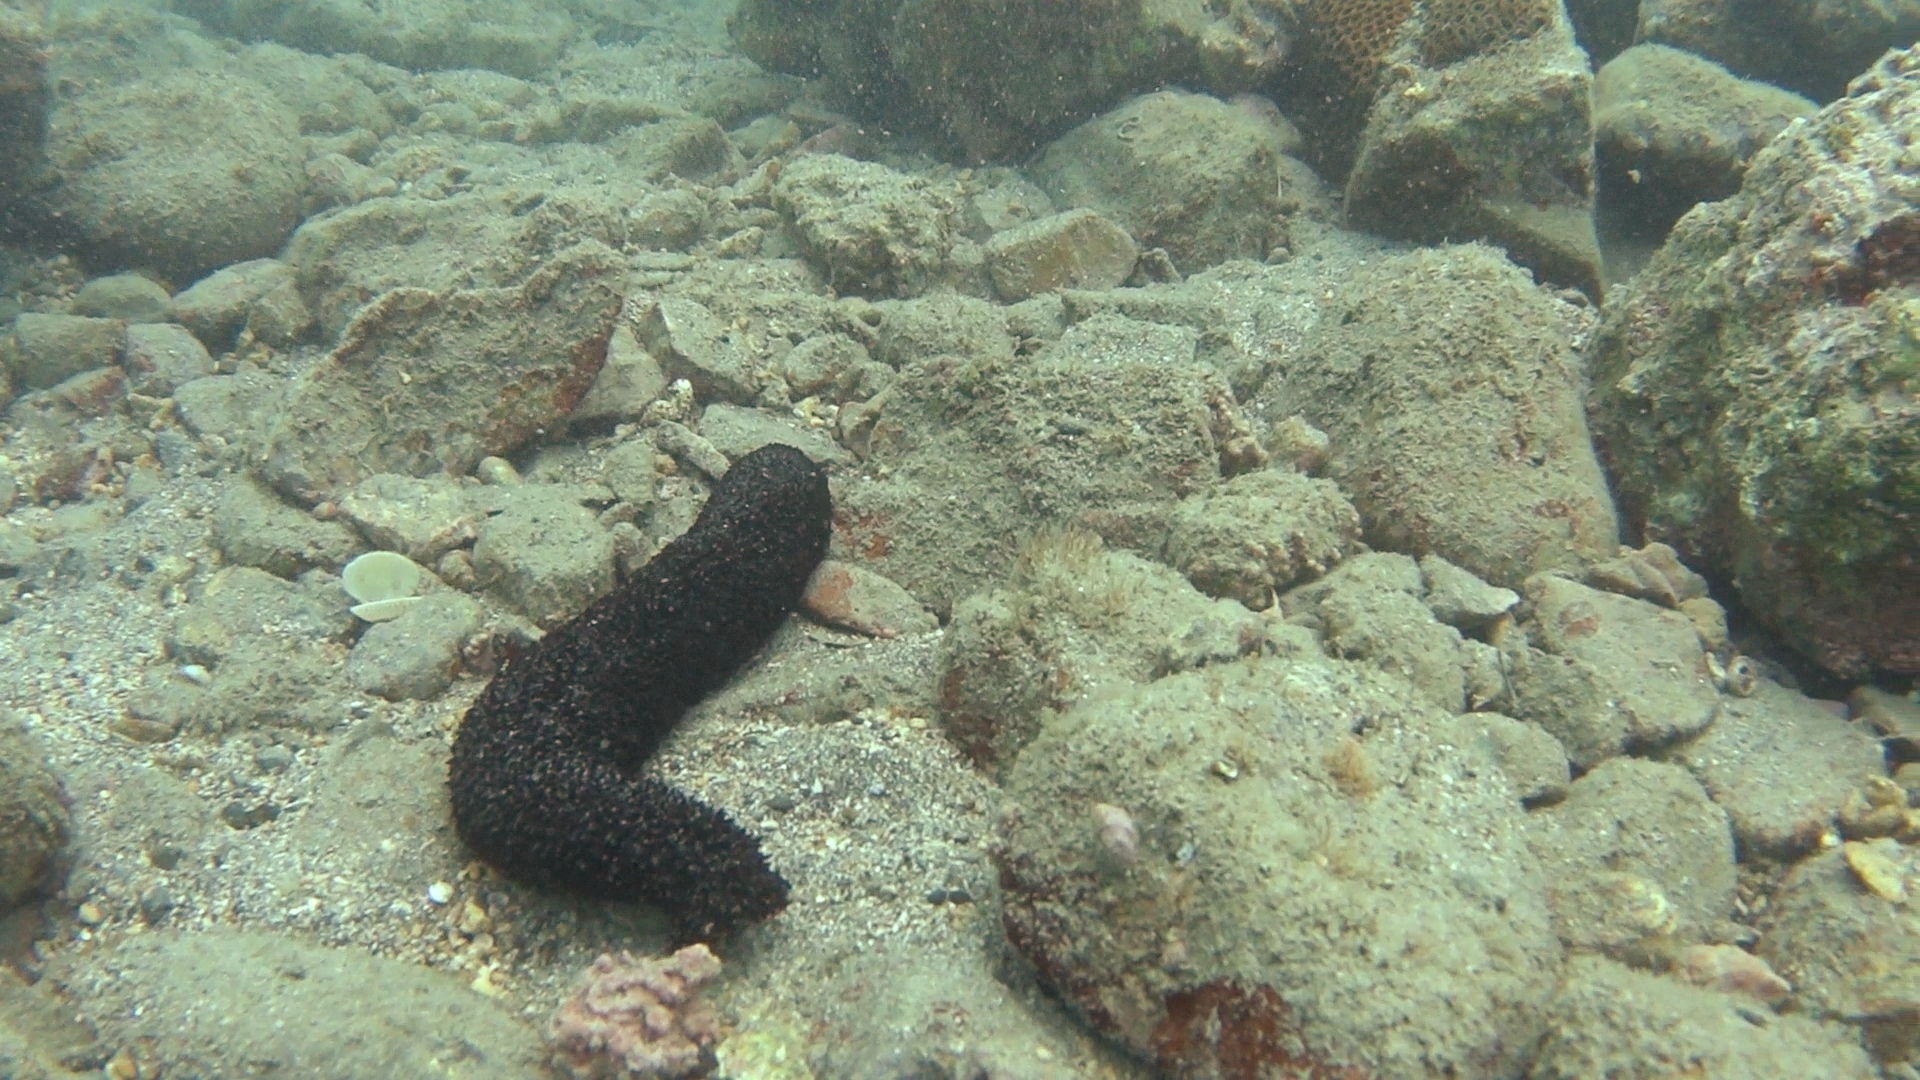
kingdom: Animalia
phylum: Echinodermata
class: Holothuroidea
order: Holothuriida
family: Holothuriidae
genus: Holothuria
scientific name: Holothuria leucospilota
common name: White thread fish
